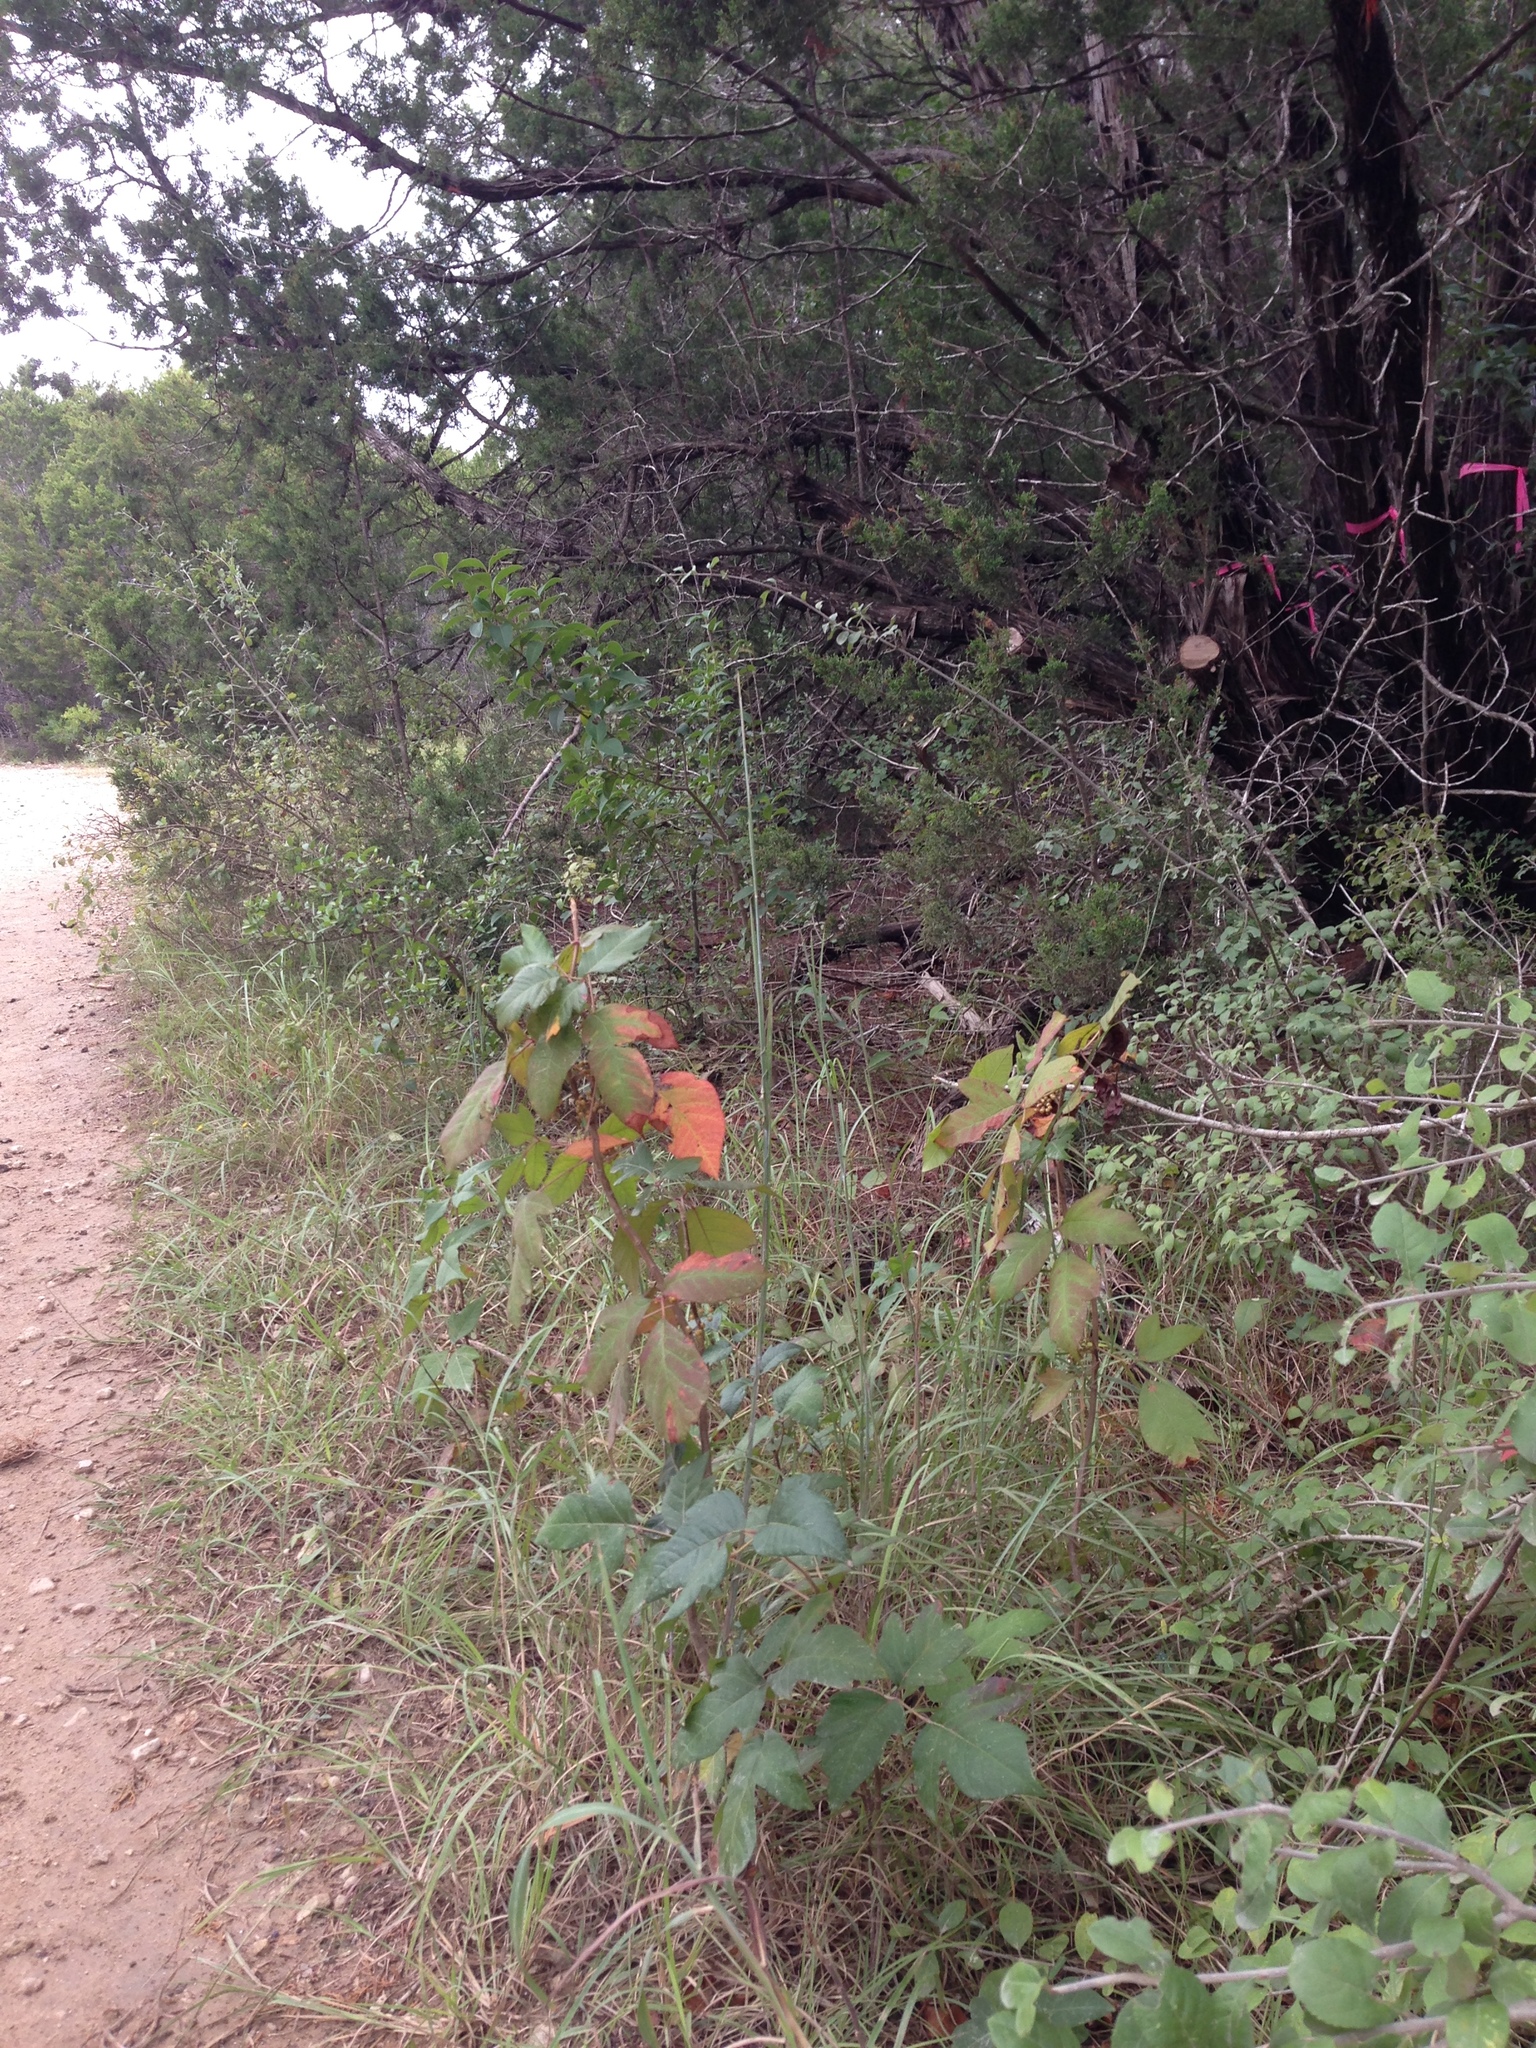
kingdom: Plantae
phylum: Tracheophyta
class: Magnoliopsida
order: Sapindales
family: Anacardiaceae
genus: Toxicodendron
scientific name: Toxicodendron radicans
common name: Poison ivy
